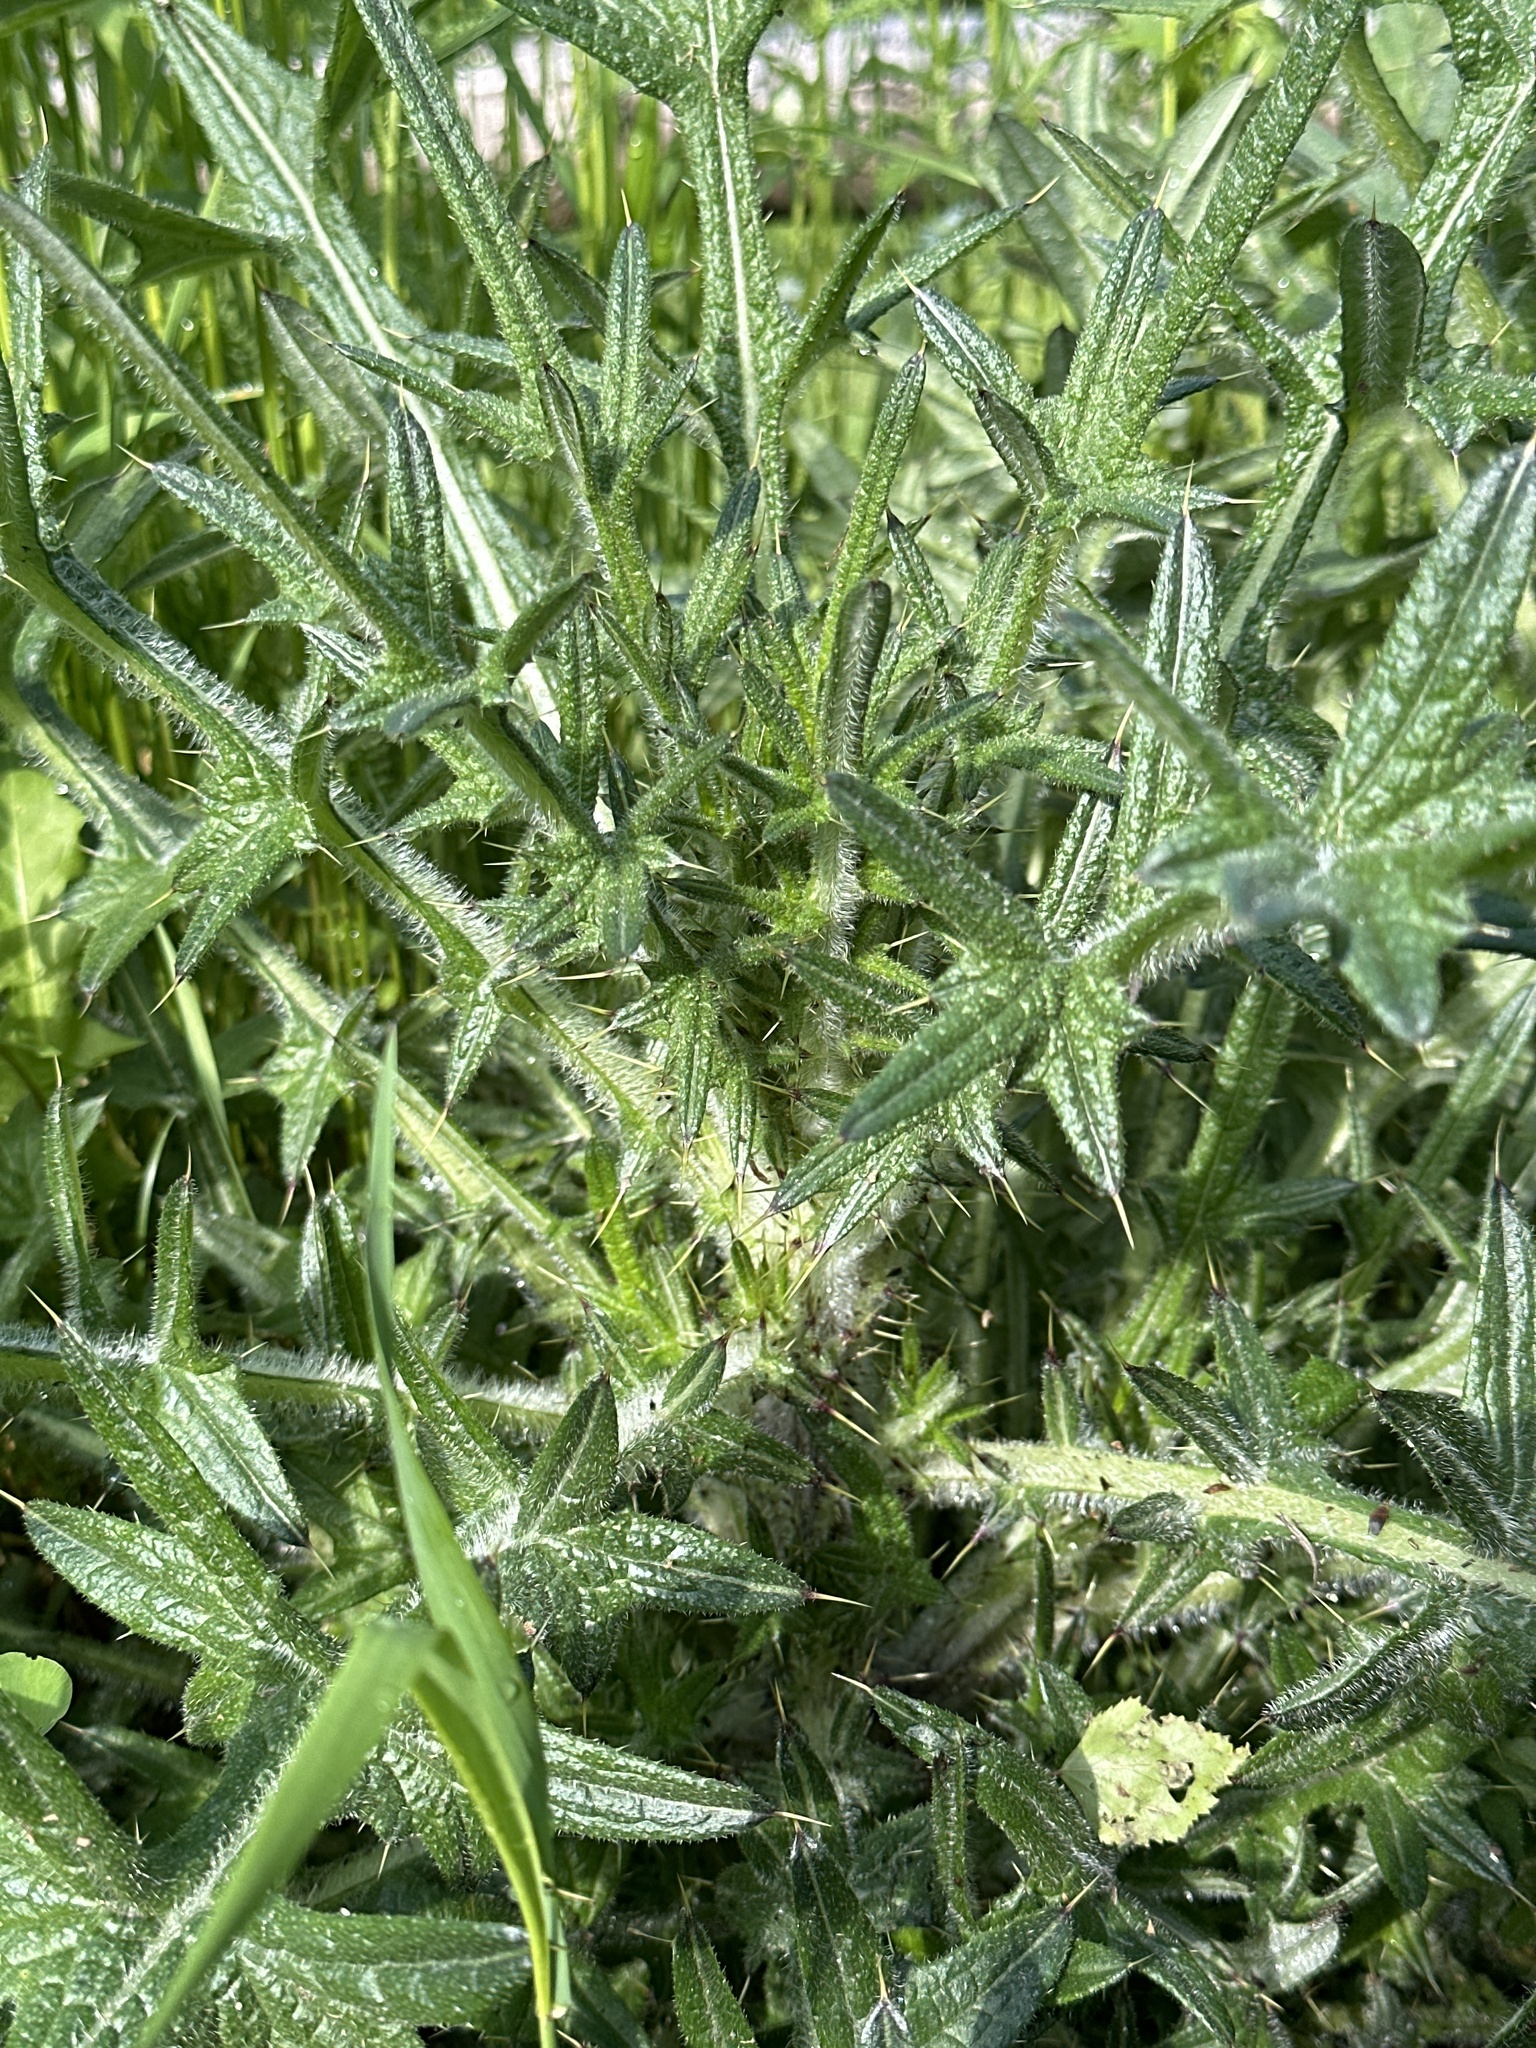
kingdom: Plantae
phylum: Tracheophyta
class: Magnoliopsida
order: Asterales
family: Asteraceae
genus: Cirsium
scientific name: Cirsium vulgare
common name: Bull thistle
